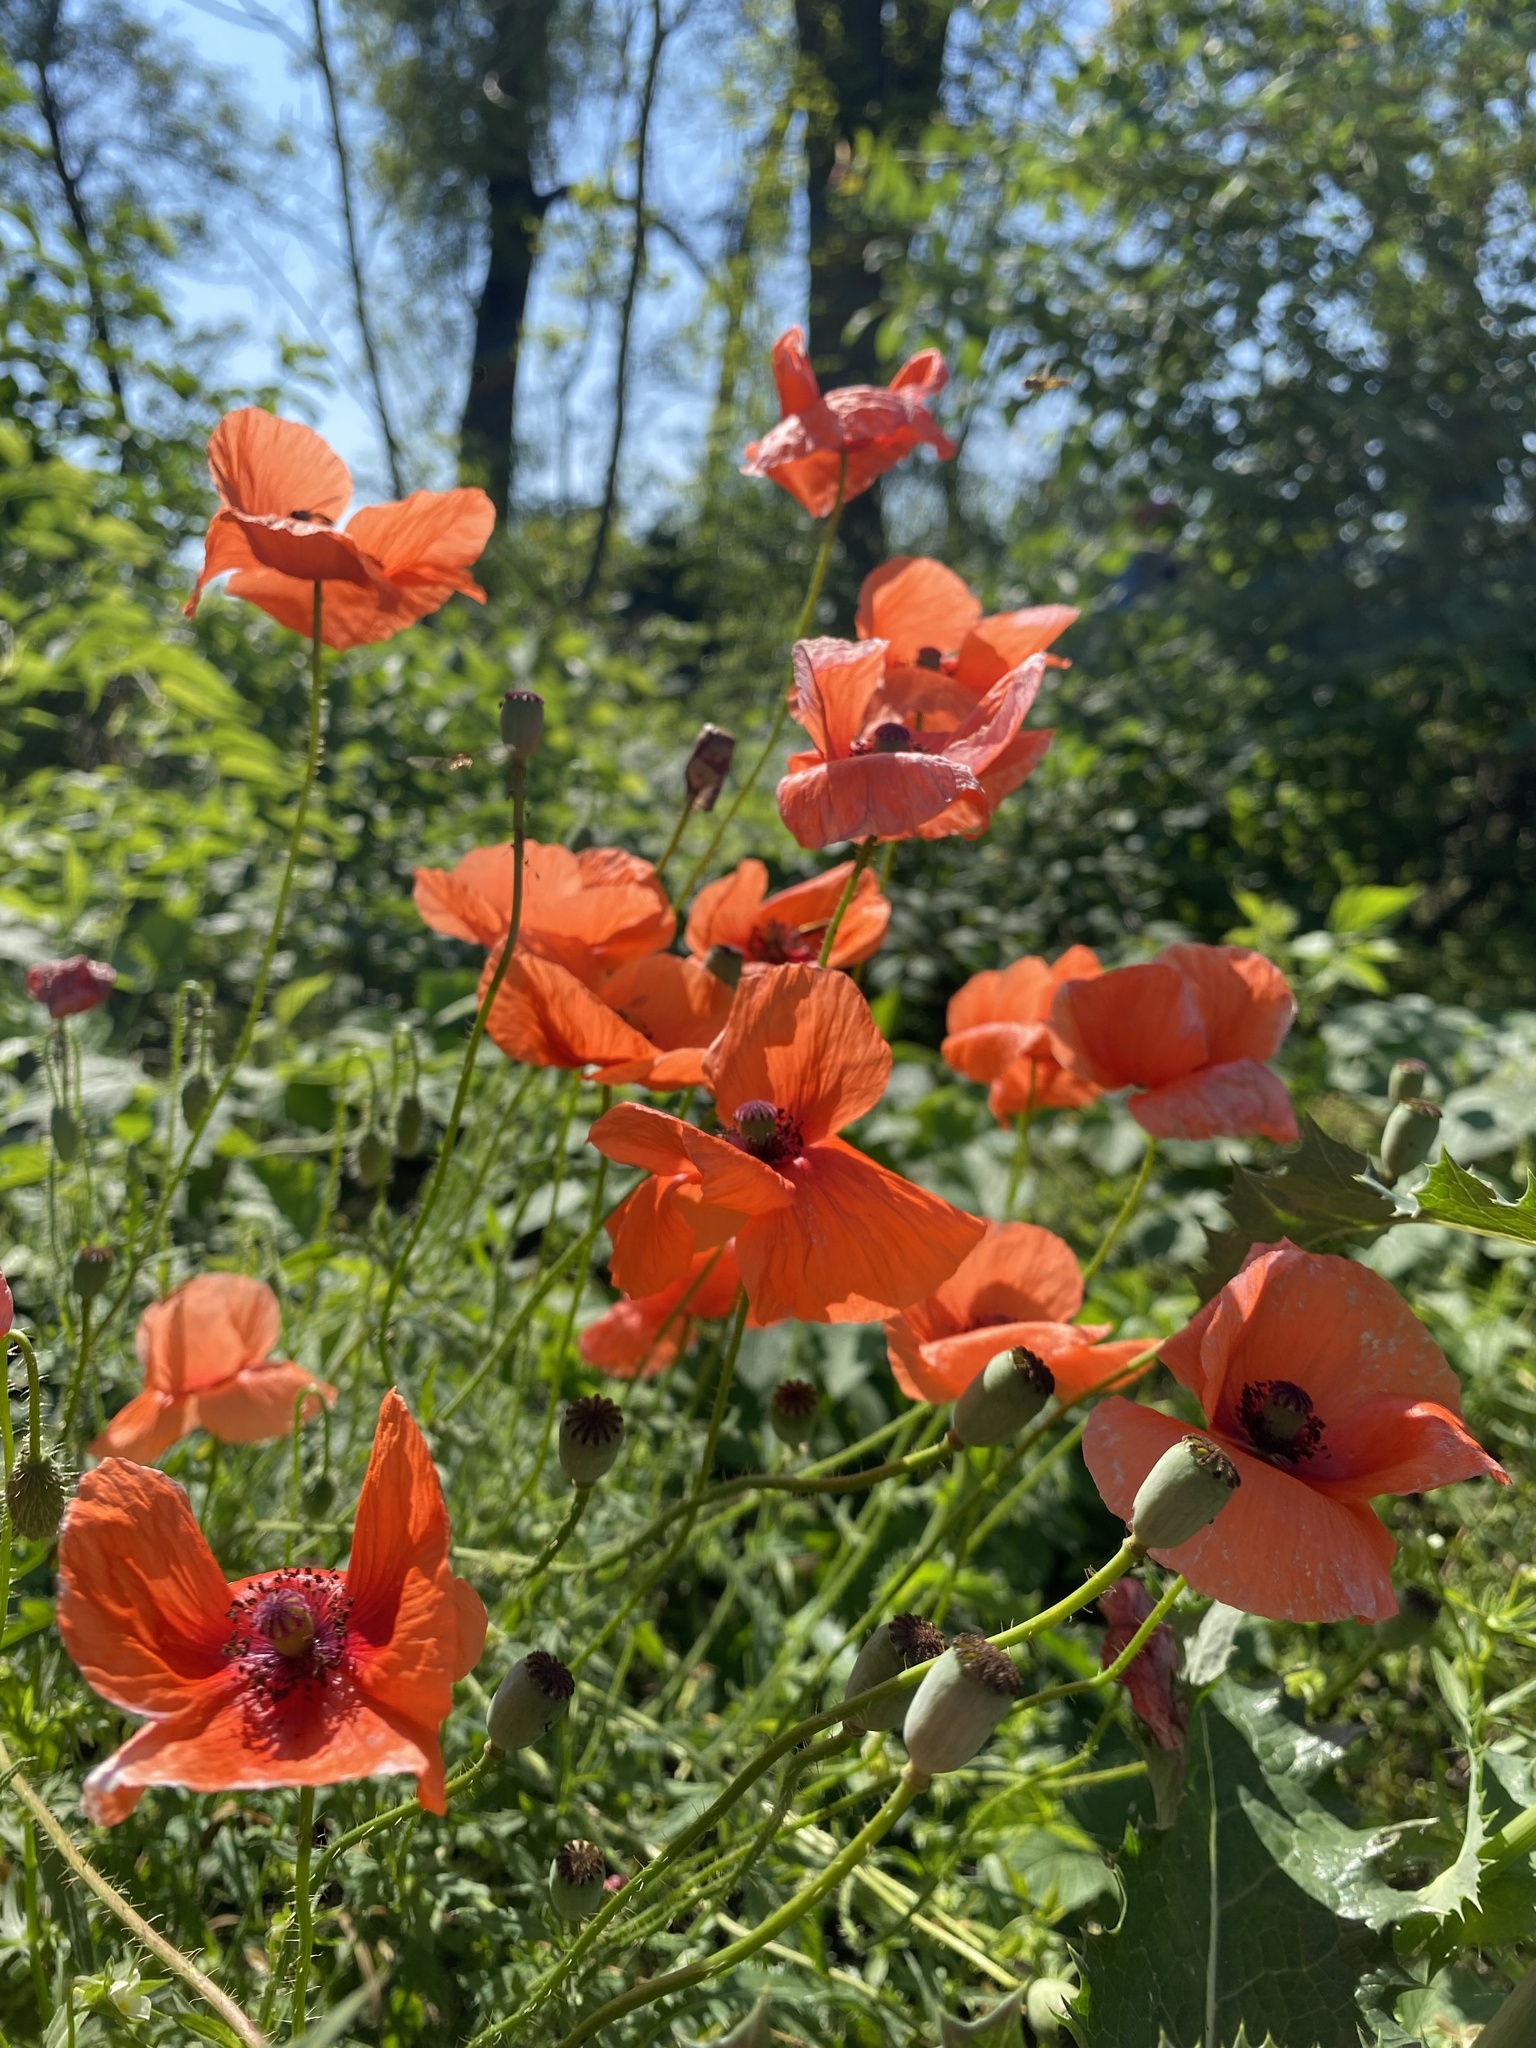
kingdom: Plantae
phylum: Tracheophyta
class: Magnoliopsida
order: Ranunculales
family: Papaveraceae
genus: Papaver
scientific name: Papaver rhoeas
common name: Corn poppy
